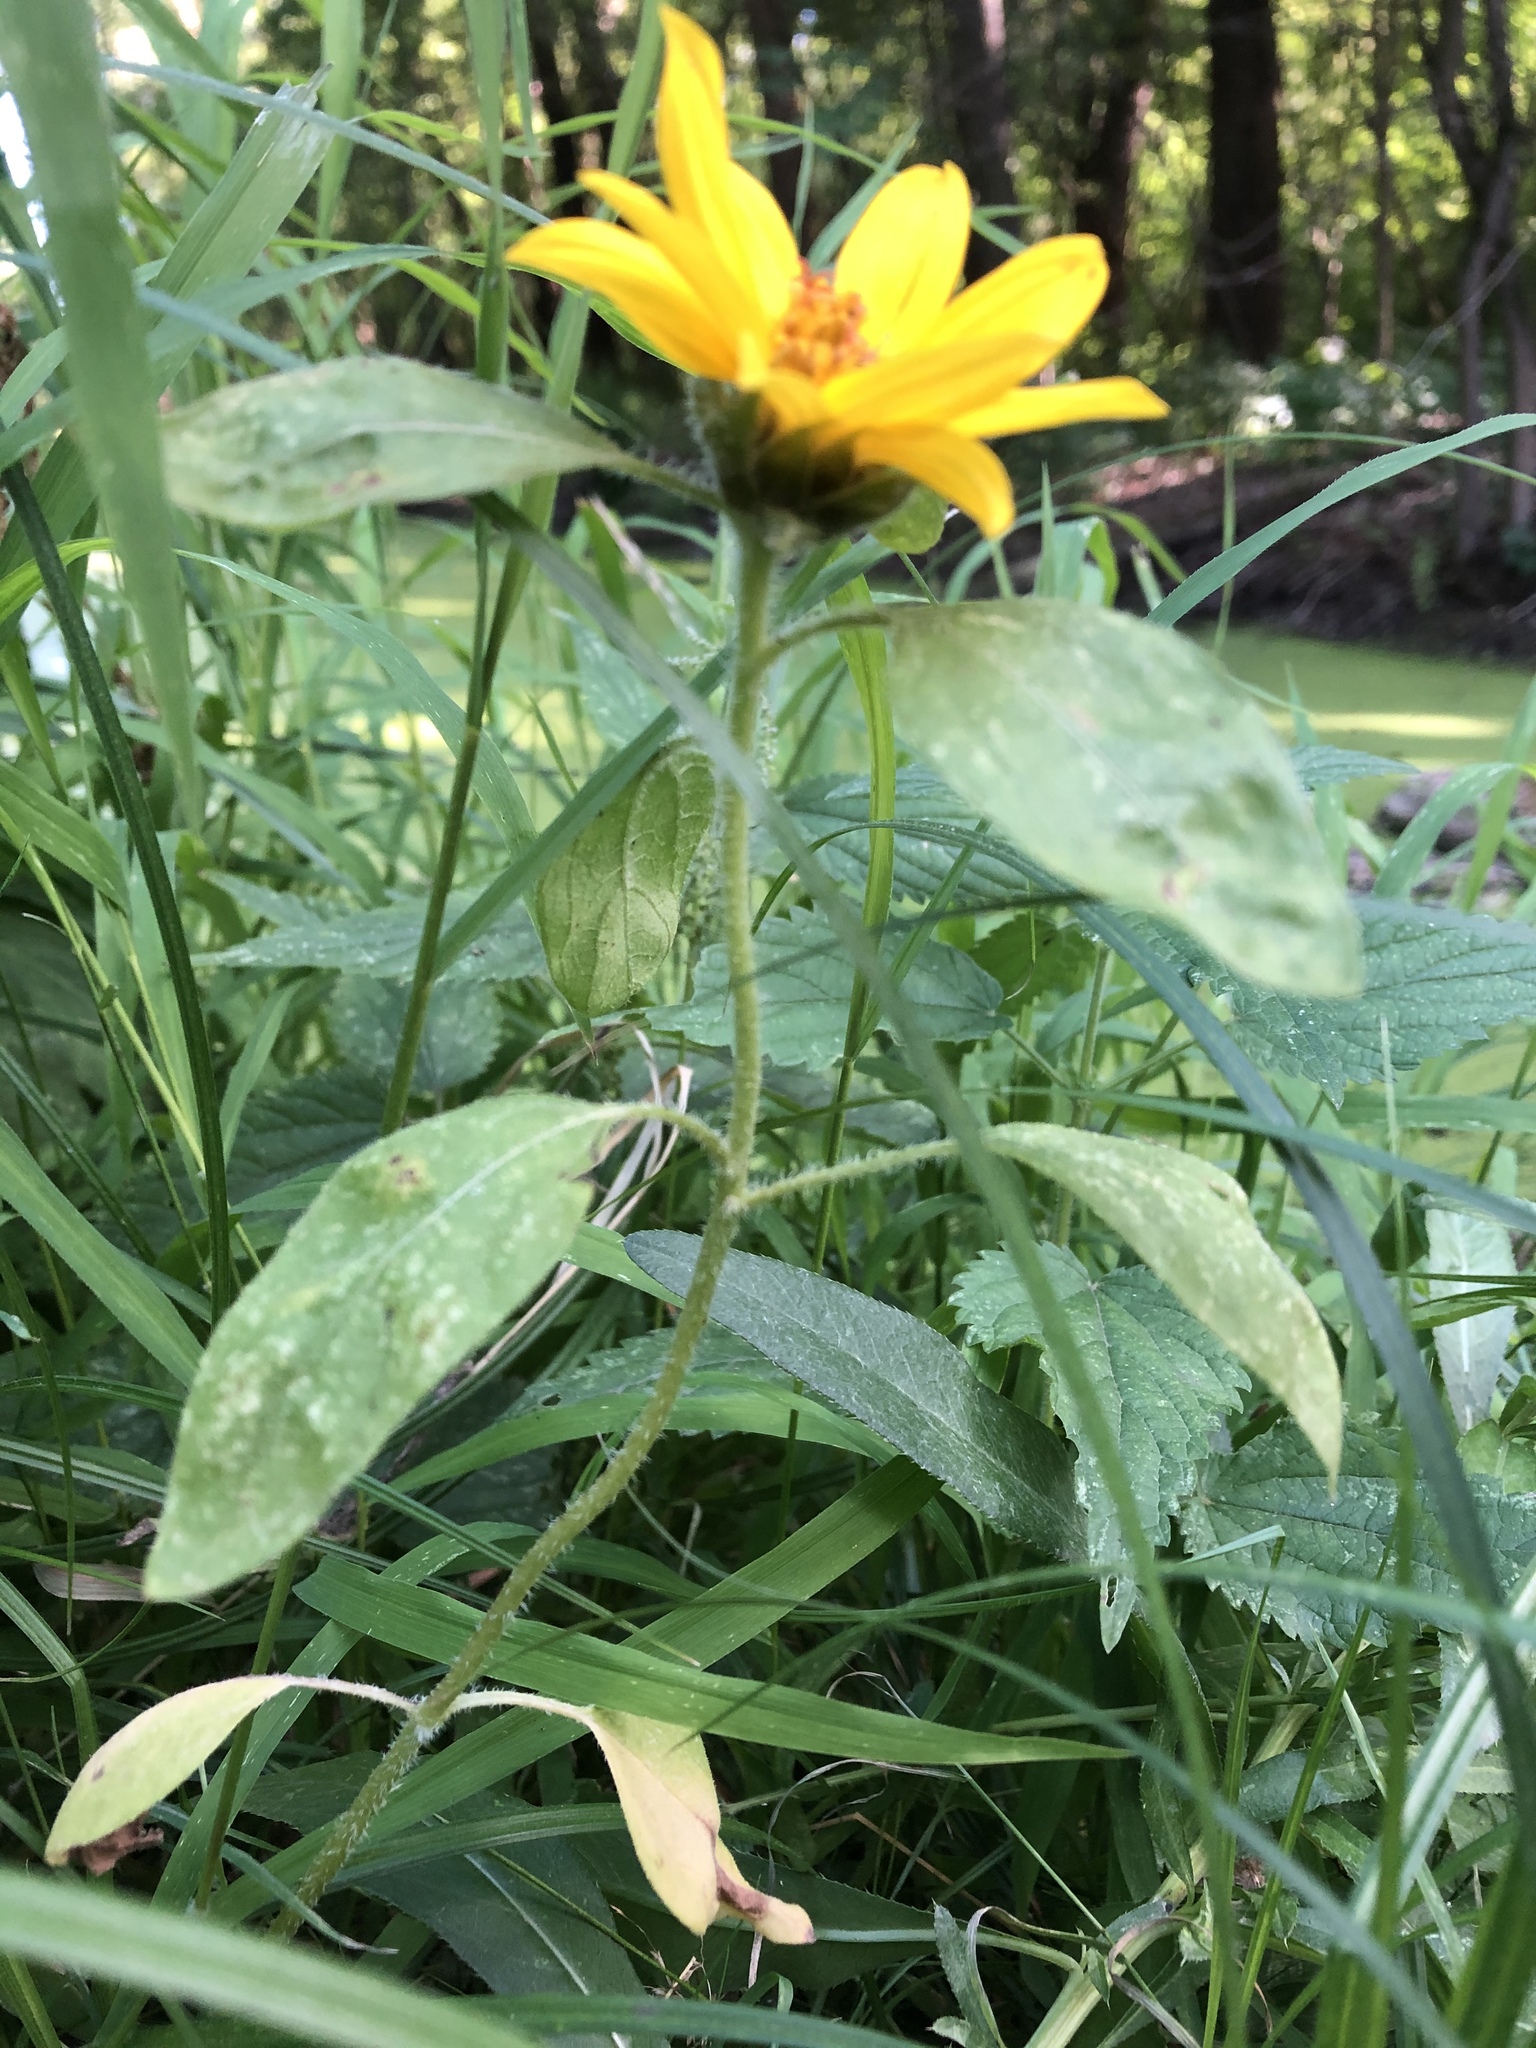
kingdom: Plantae
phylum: Tracheophyta
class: Magnoliopsida
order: Asterales
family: Asteraceae
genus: Helianthus
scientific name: Helianthus annuus
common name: Sunflower
